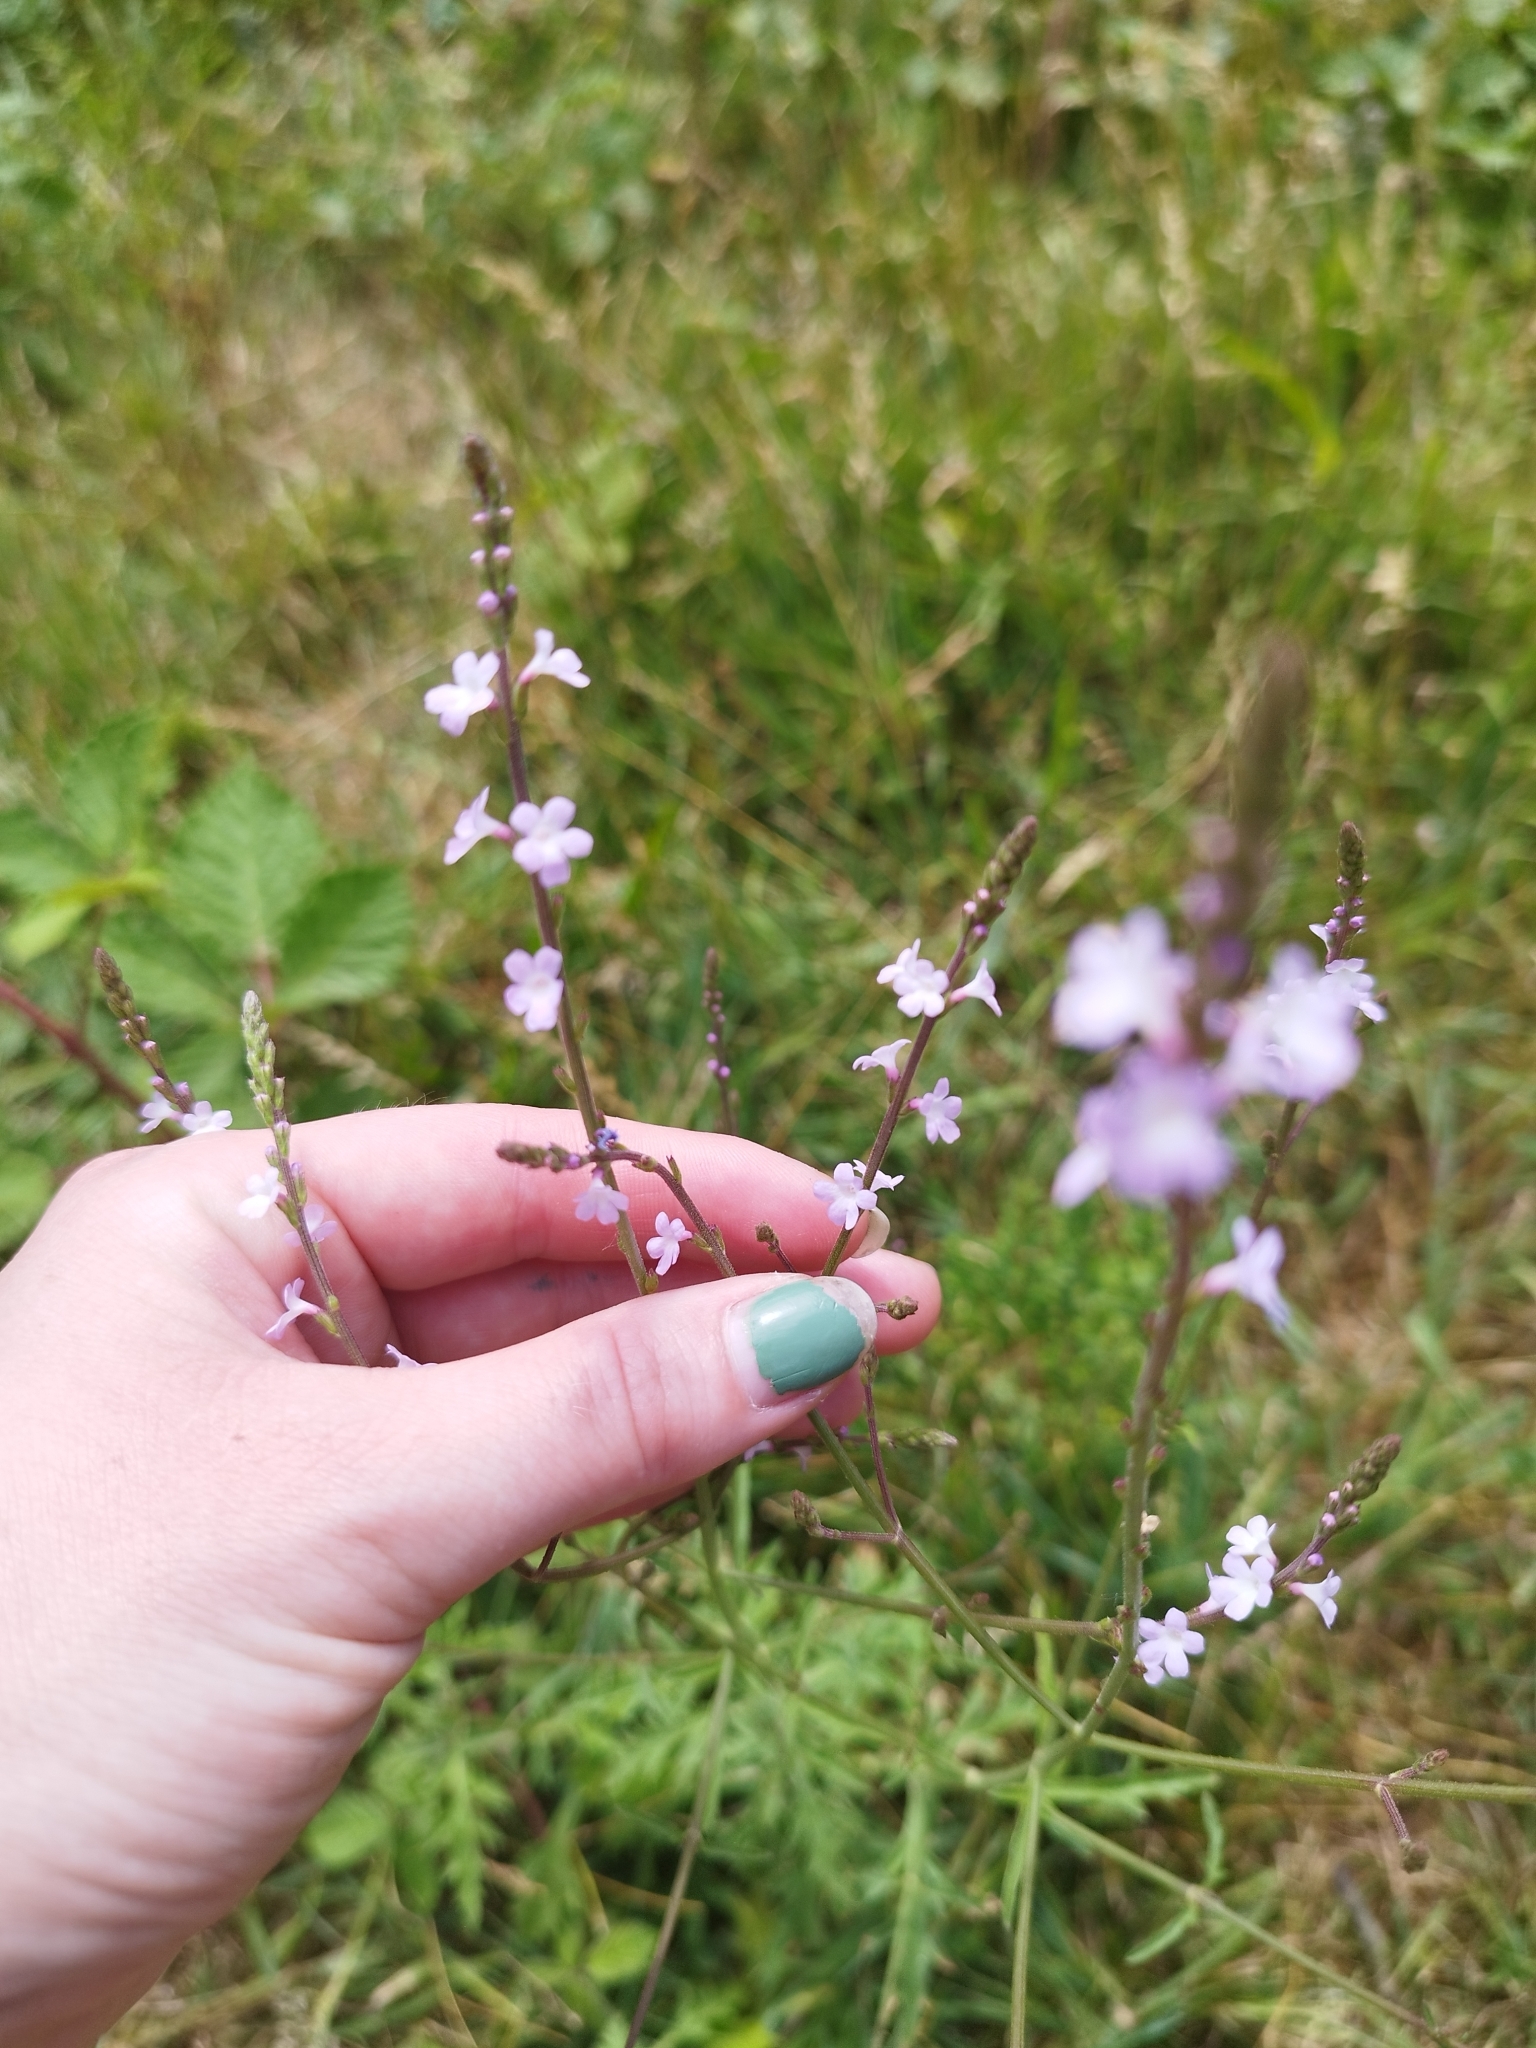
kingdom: Plantae
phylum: Tracheophyta
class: Magnoliopsida
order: Lamiales
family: Verbenaceae
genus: Verbena
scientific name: Verbena officinalis
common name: Vervain
